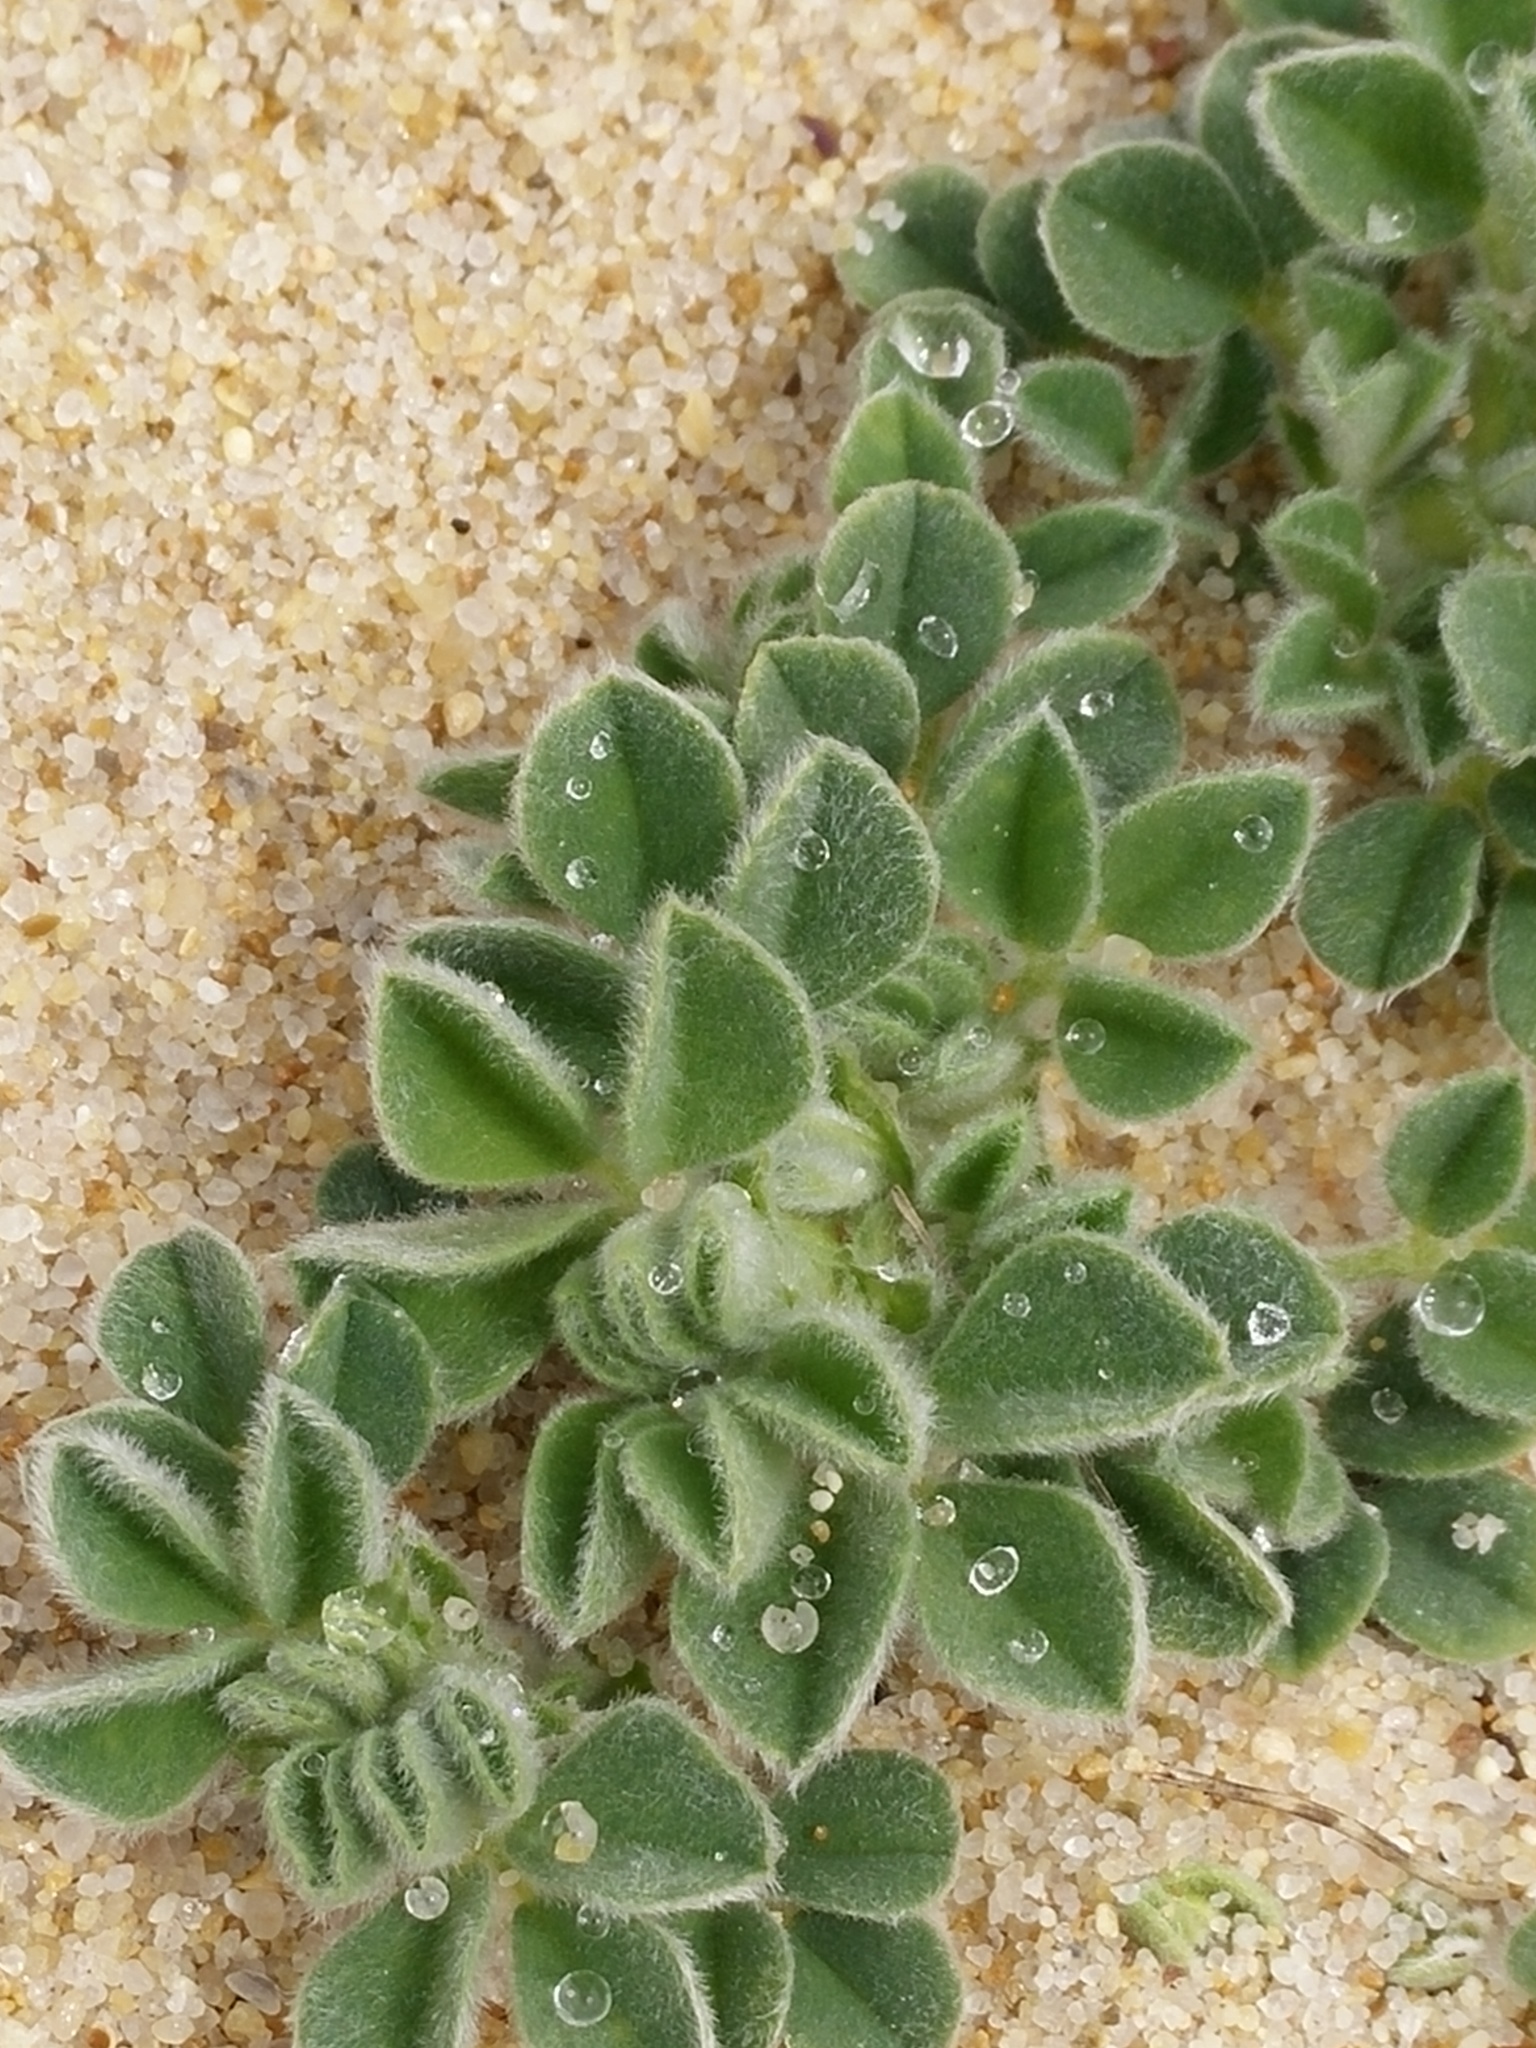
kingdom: Plantae
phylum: Tracheophyta
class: Magnoliopsida
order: Fabales
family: Fabaceae
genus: Medicago
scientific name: Medicago marina
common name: Sea medick
